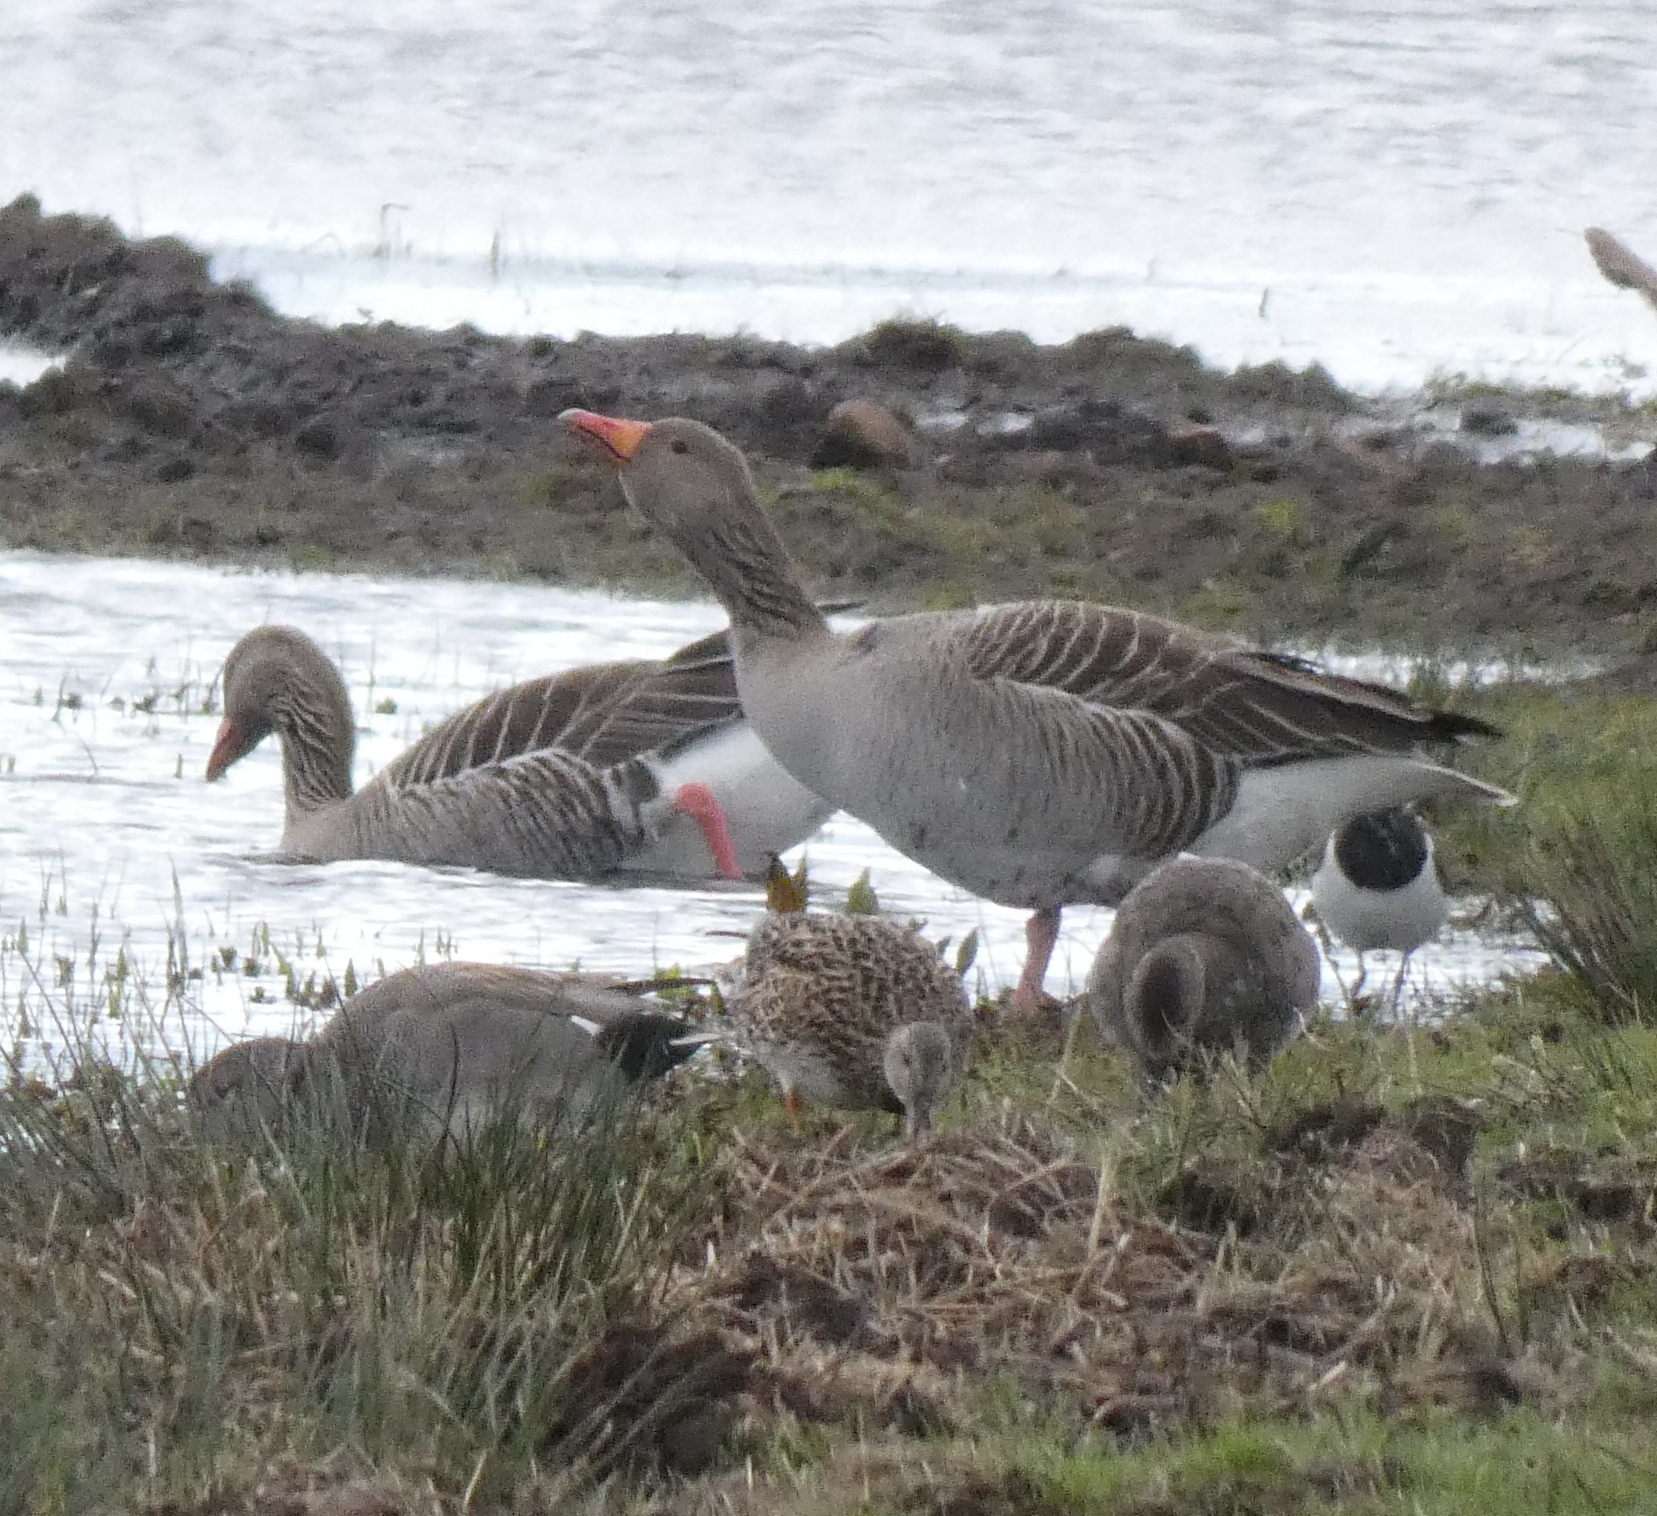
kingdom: Animalia
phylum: Chordata
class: Aves
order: Anseriformes
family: Anatidae
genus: Anser
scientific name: Anser anser
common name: Greylag goose
